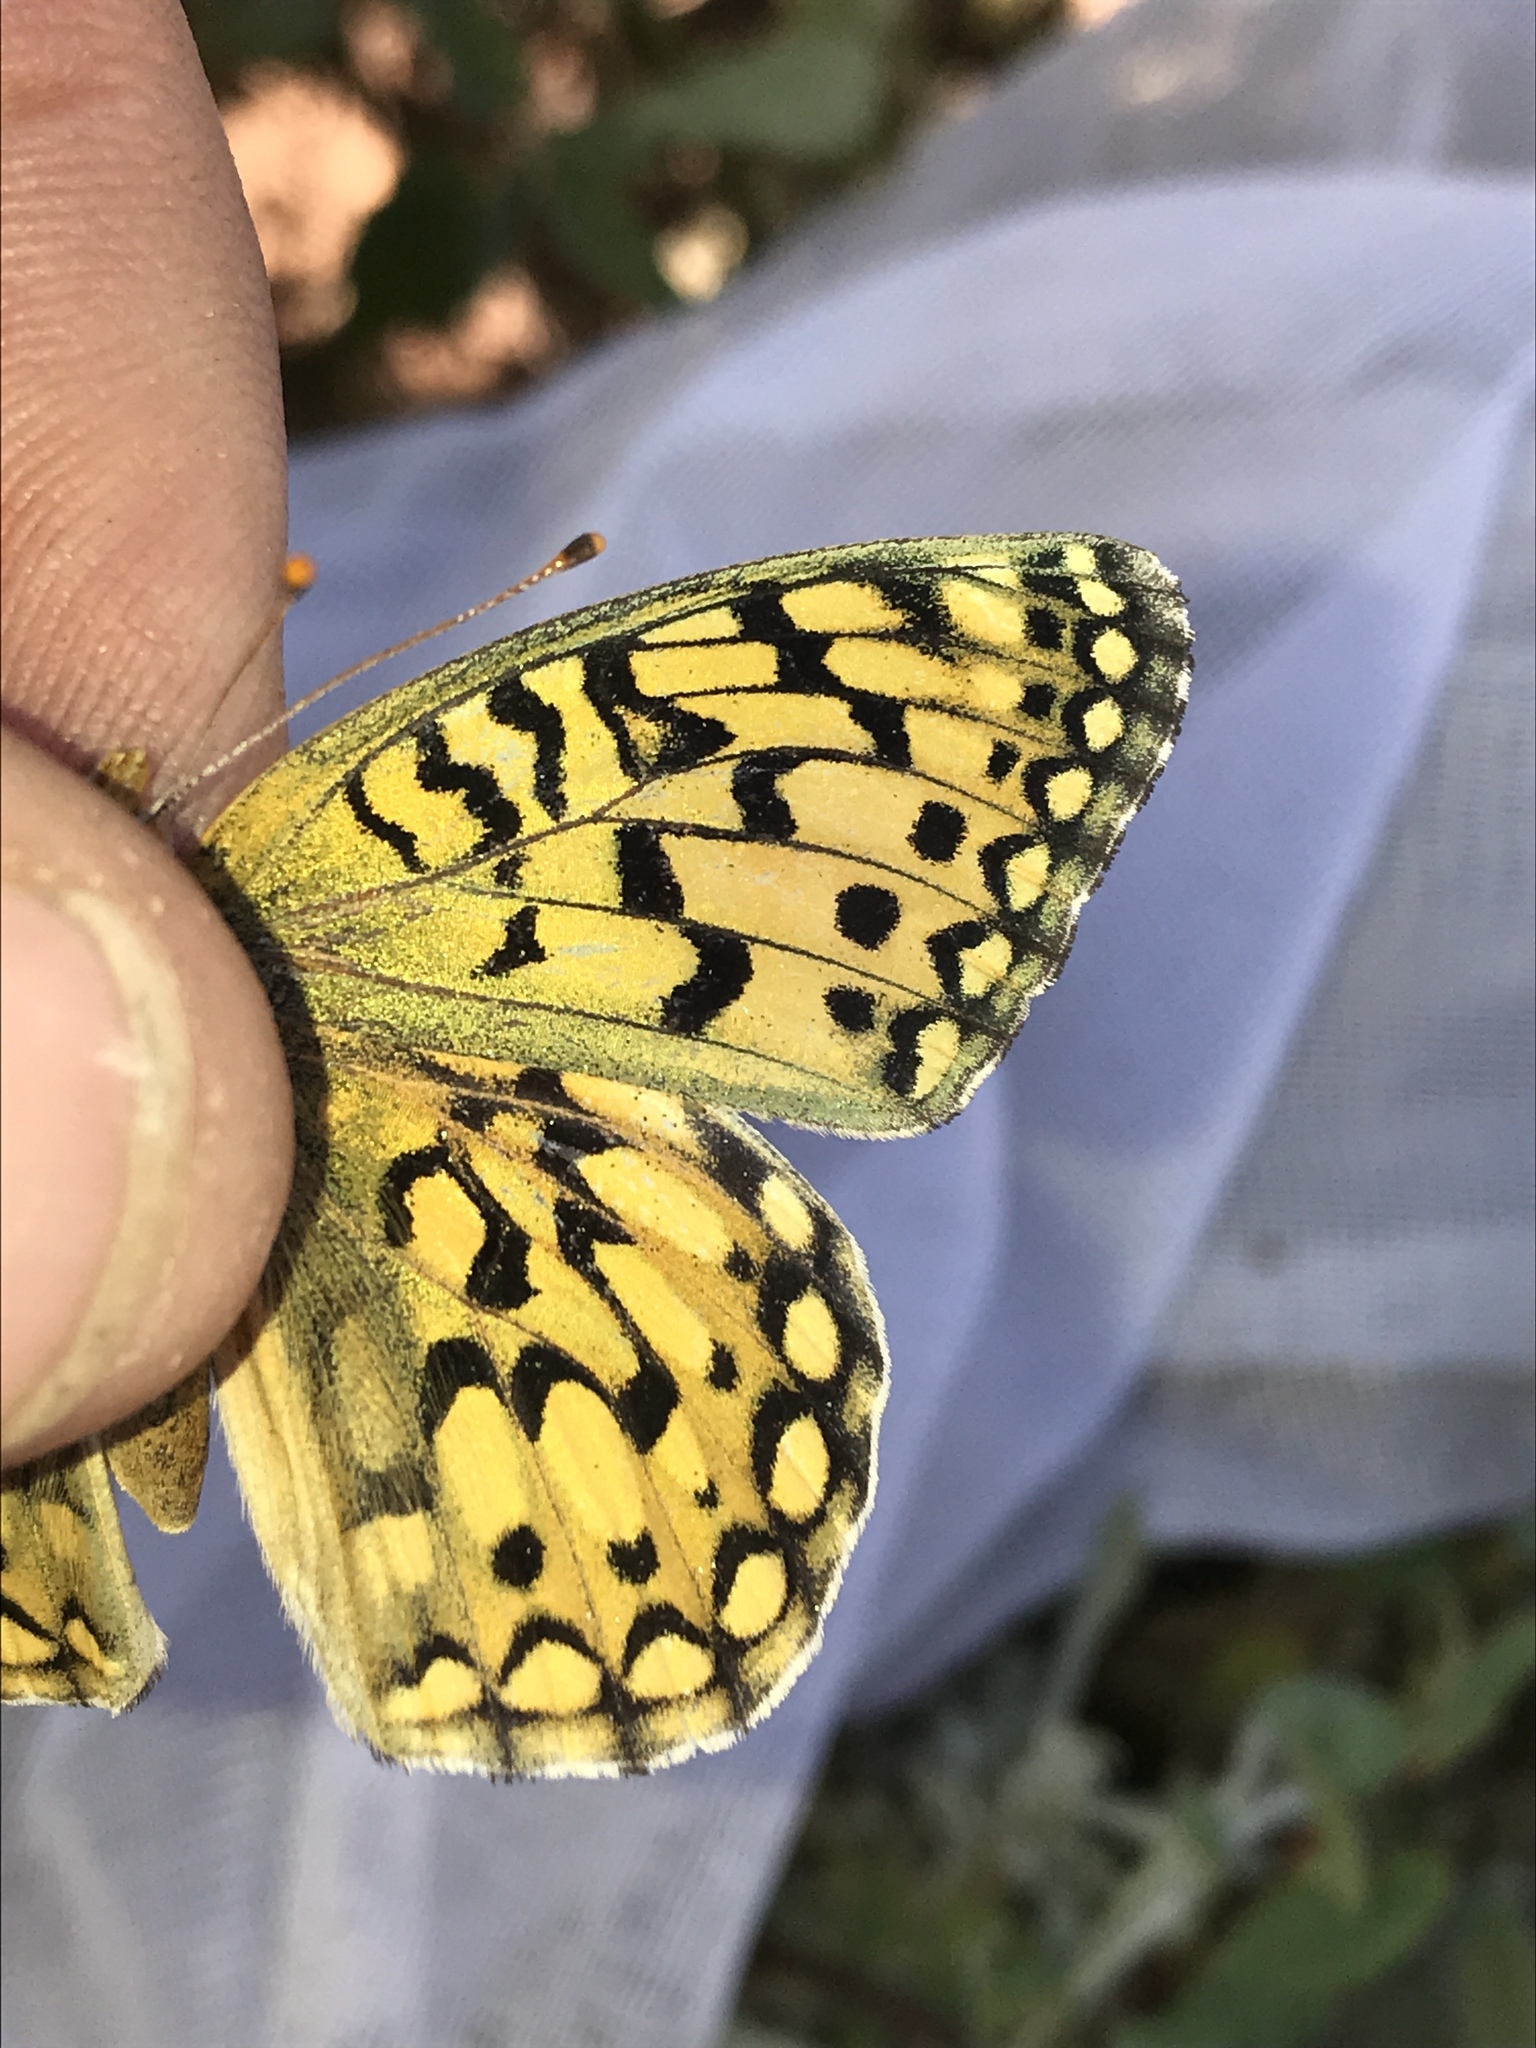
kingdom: Animalia
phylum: Arthropoda
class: Insecta
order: Lepidoptera
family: Nymphalidae
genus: Speyeria
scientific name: Speyeria callippe
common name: Callippe fritillary
